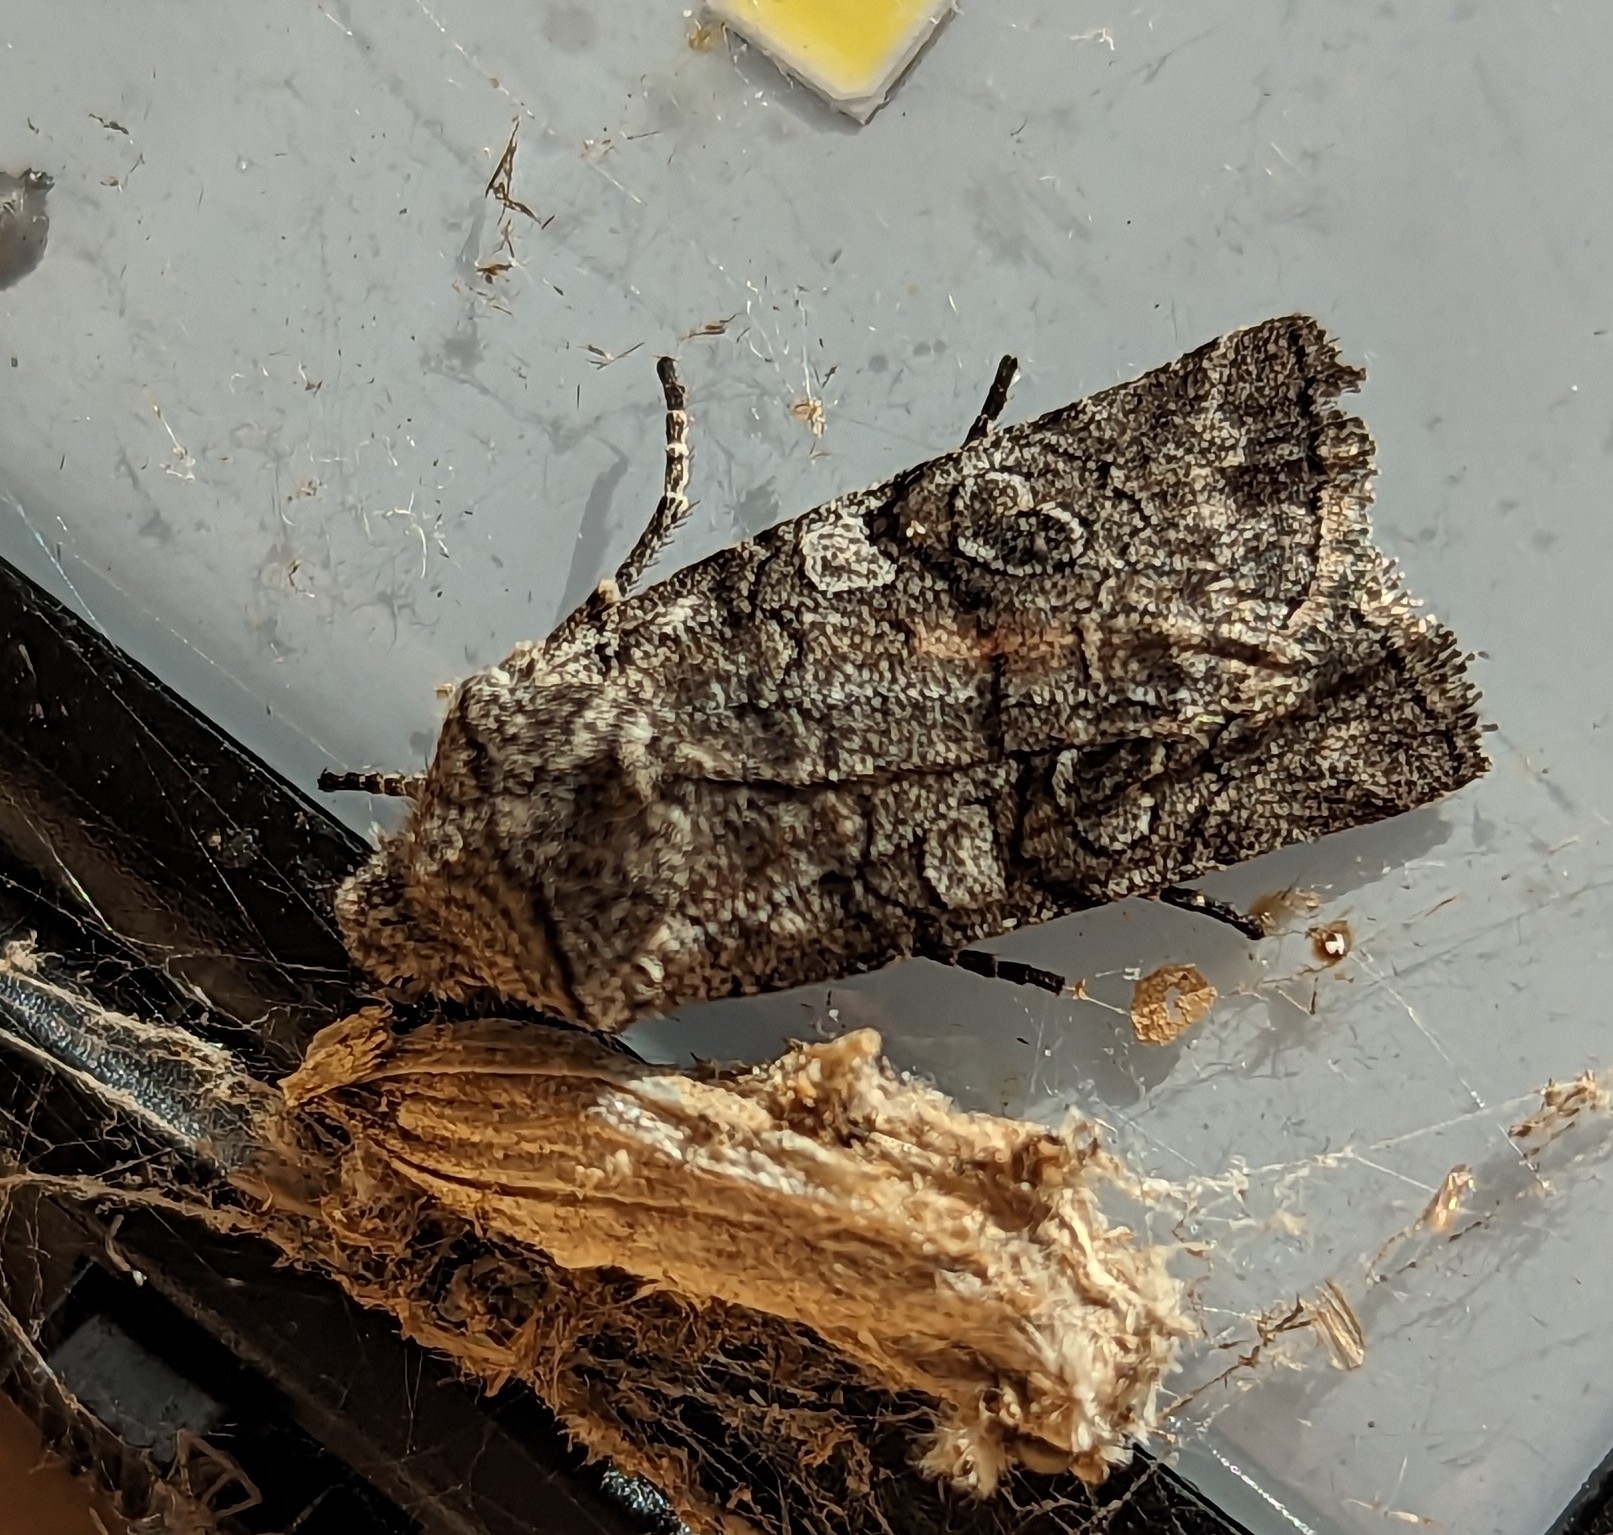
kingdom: Animalia
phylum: Arthropoda
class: Insecta
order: Lepidoptera
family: Noctuidae
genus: Litholomia
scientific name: Litholomia napaea
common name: False pinion moth
